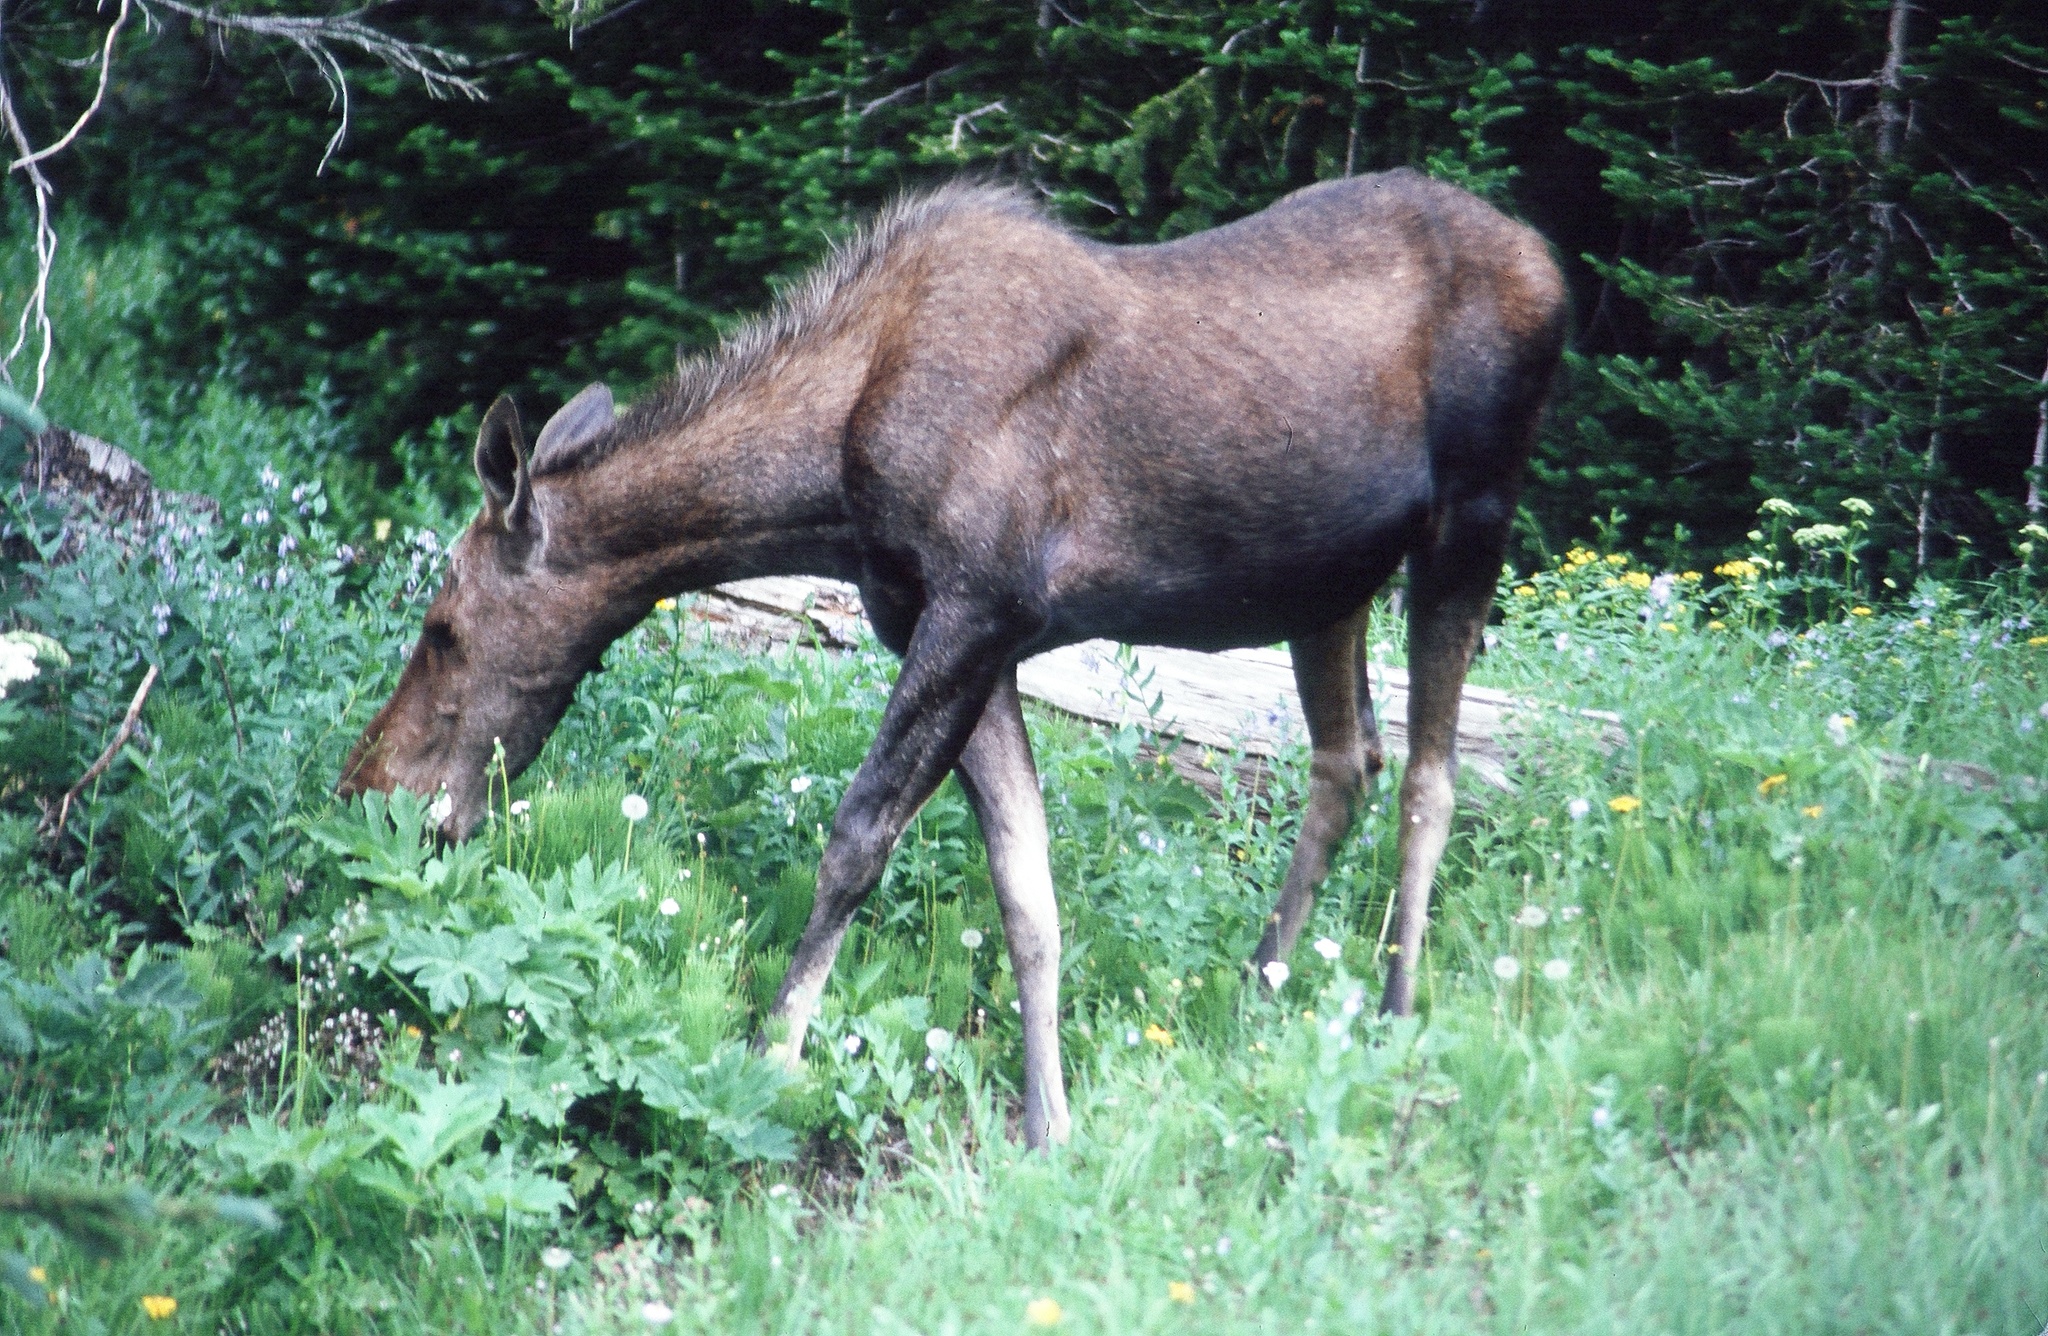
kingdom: Animalia
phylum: Chordata
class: Mammalia
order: Artiodactyla
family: Cervidae
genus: Alces
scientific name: Alces alces
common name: Moose
